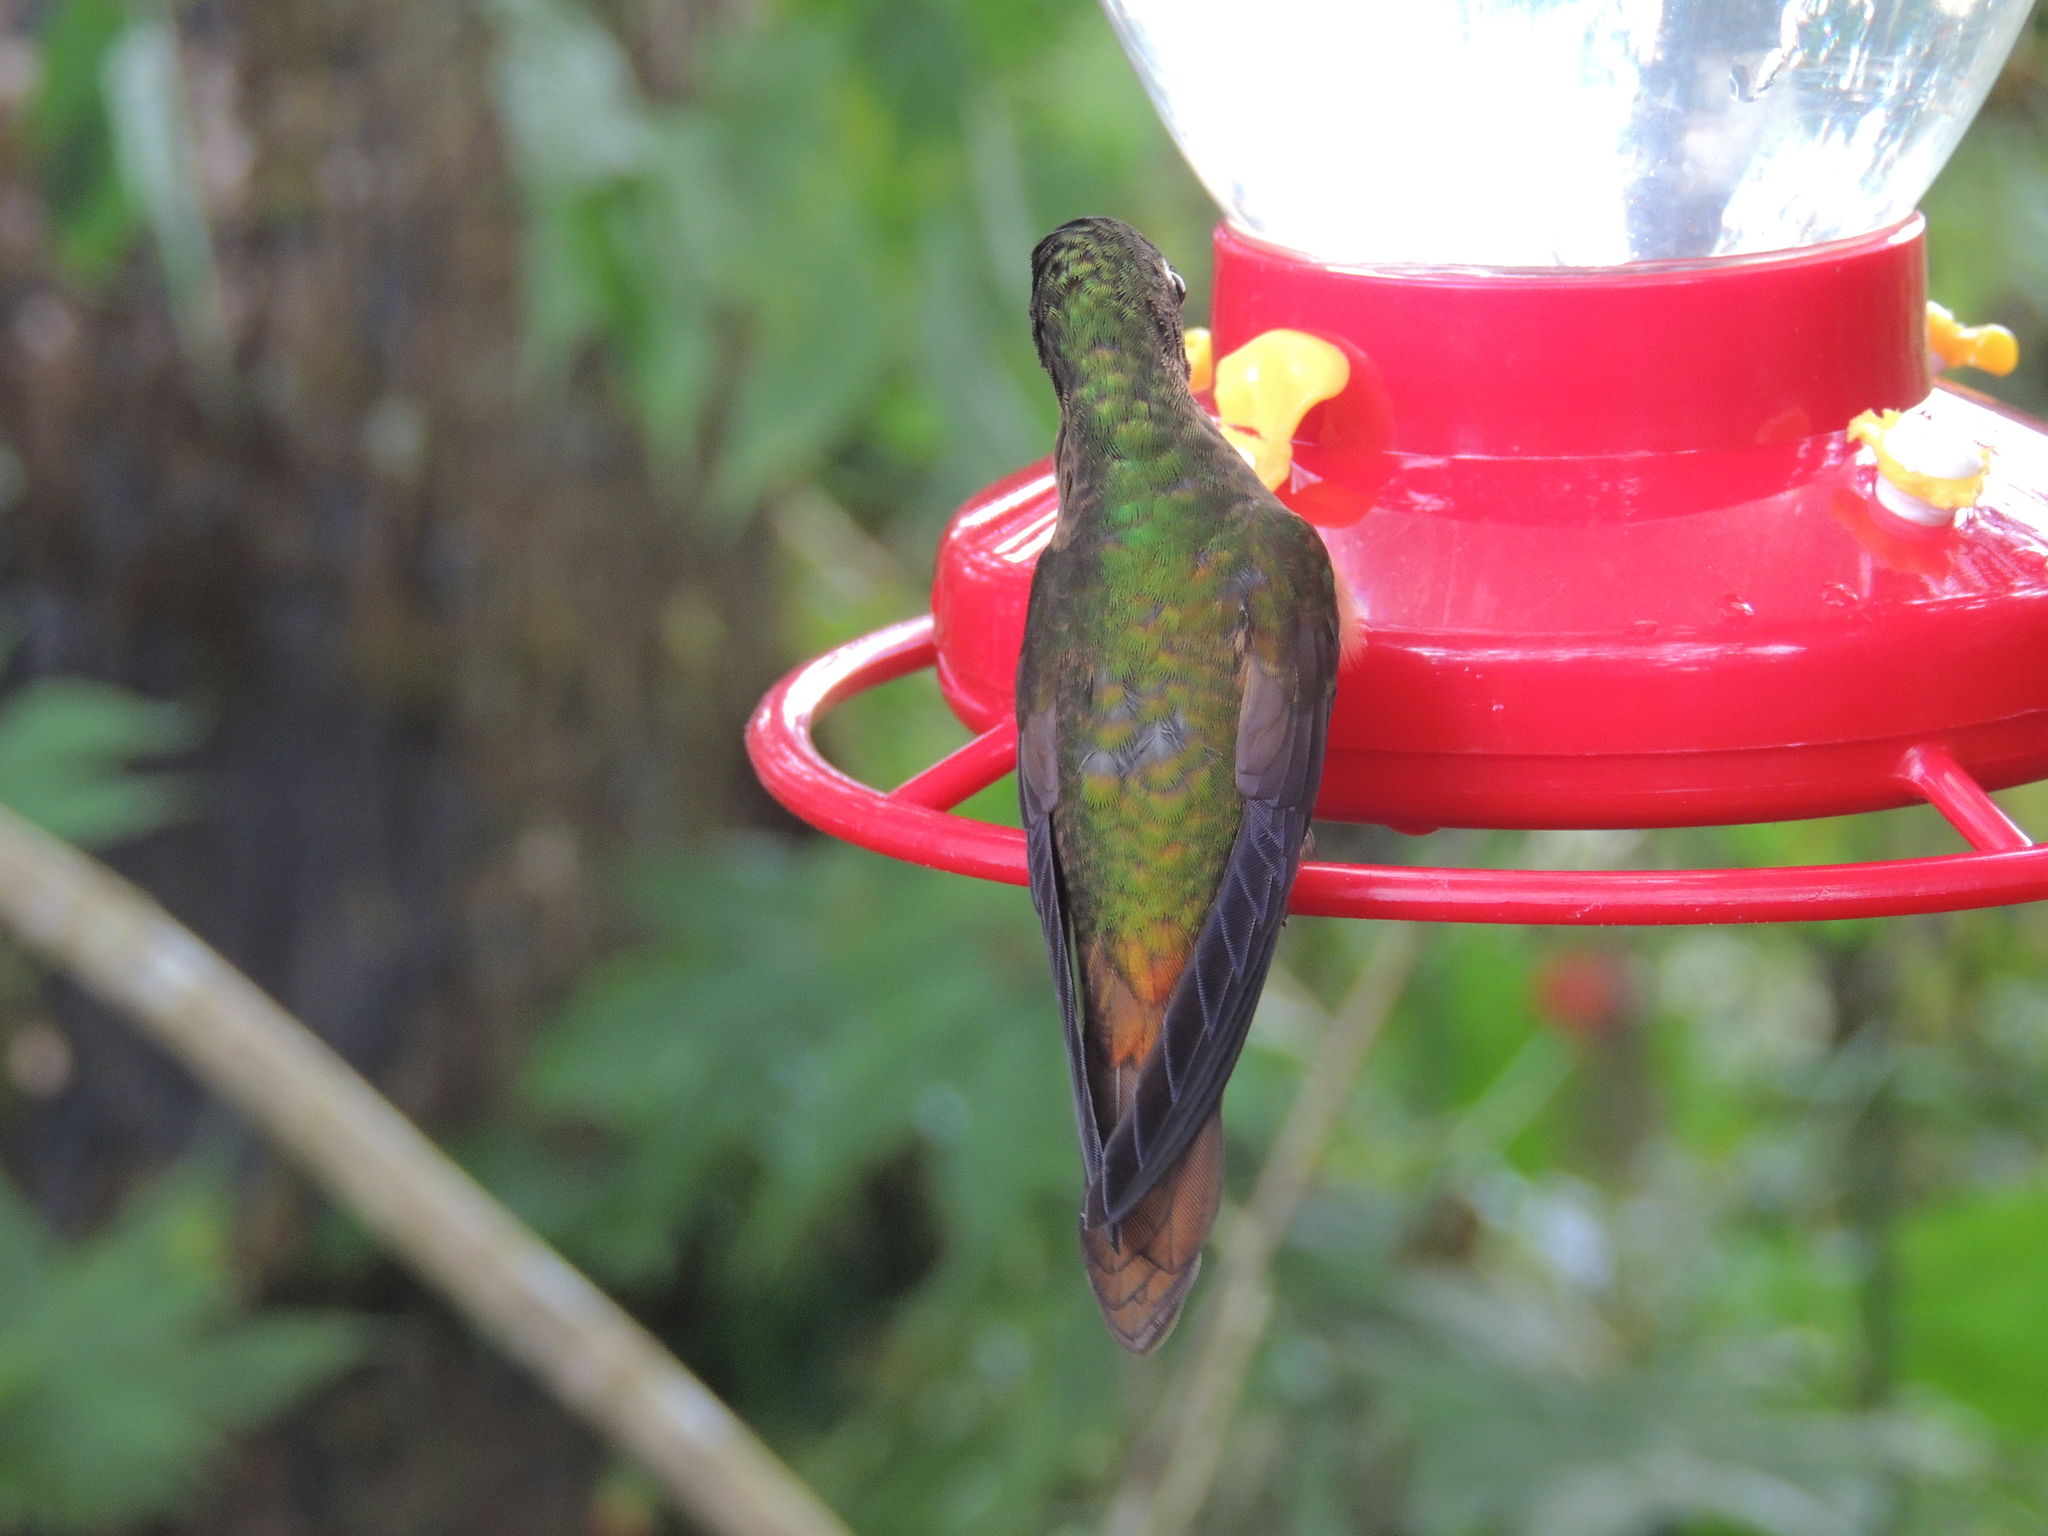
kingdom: Animalia
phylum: Chordata
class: Aves
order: Apodiformes
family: Trochilidae
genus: Heliodoxa
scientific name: Heliodoxa rubinoides
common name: Fawn-breasted brilliant
